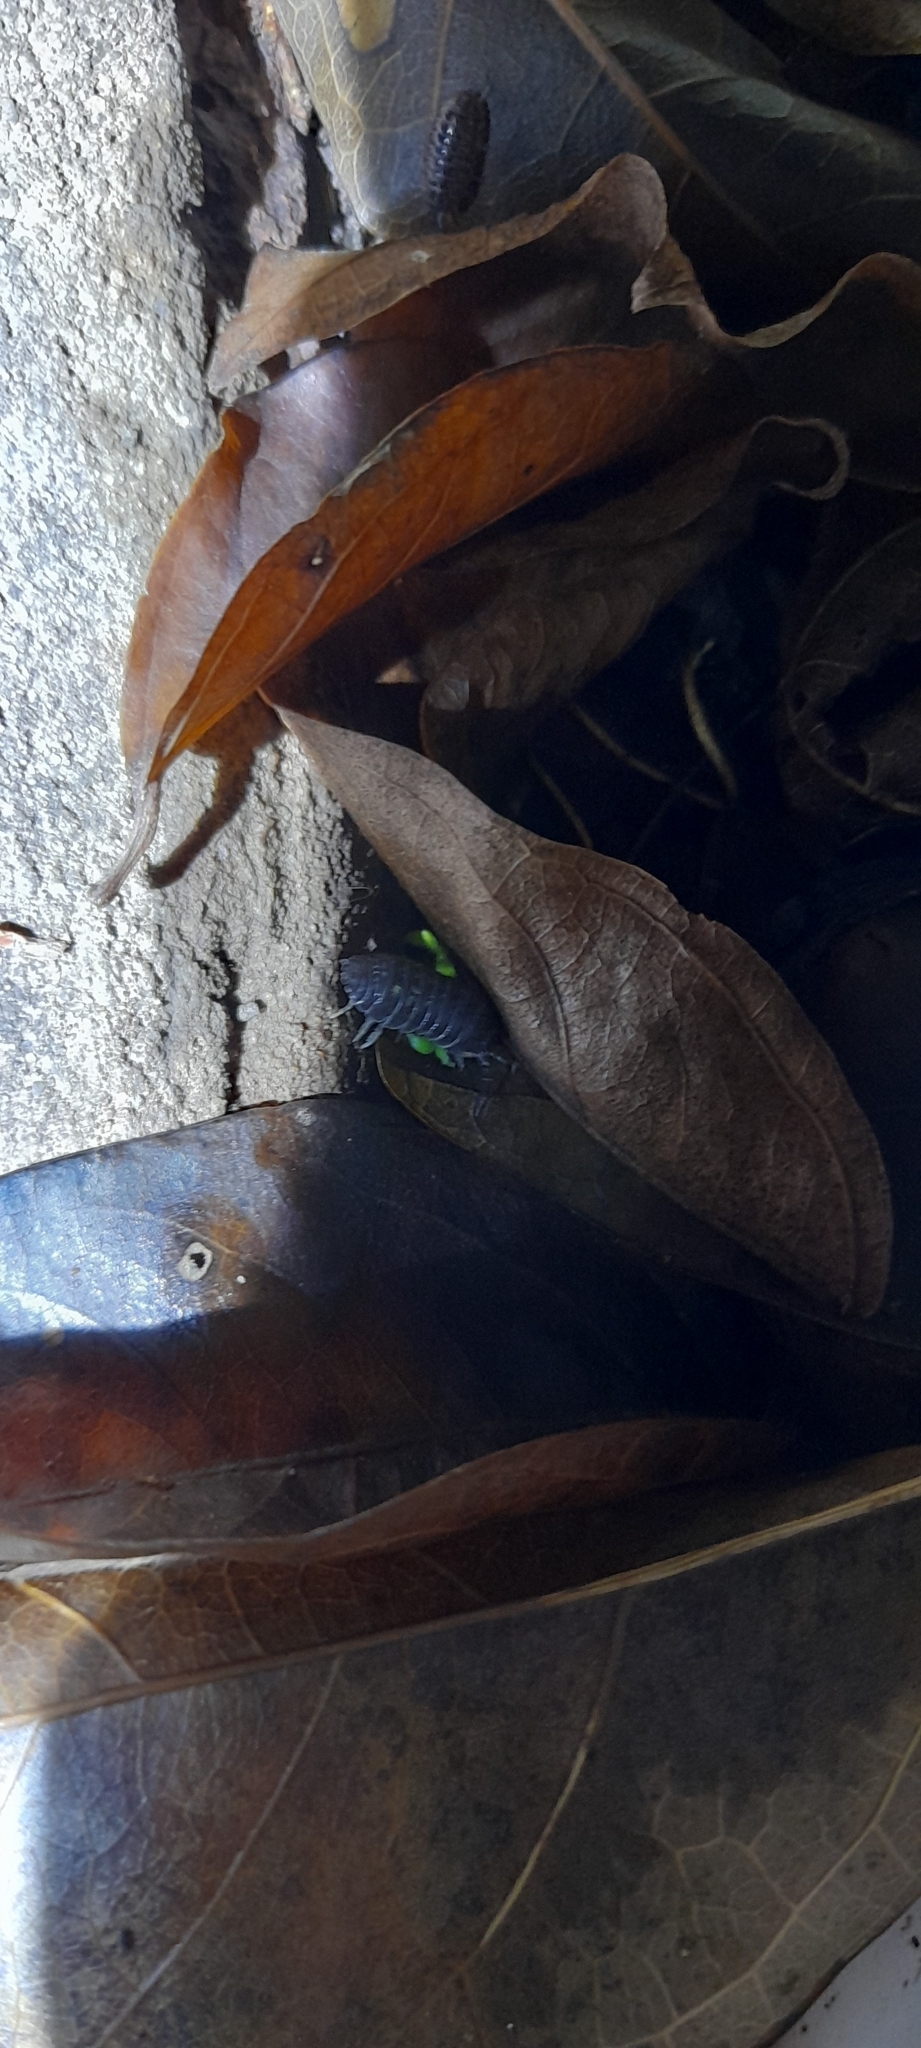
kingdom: Animalia
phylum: Arthropoda
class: Malacostraca
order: Isopoda
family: Armadillidiidae
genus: Armadillidium
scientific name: Armadillidium vulgare
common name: Common pill woodlouse
